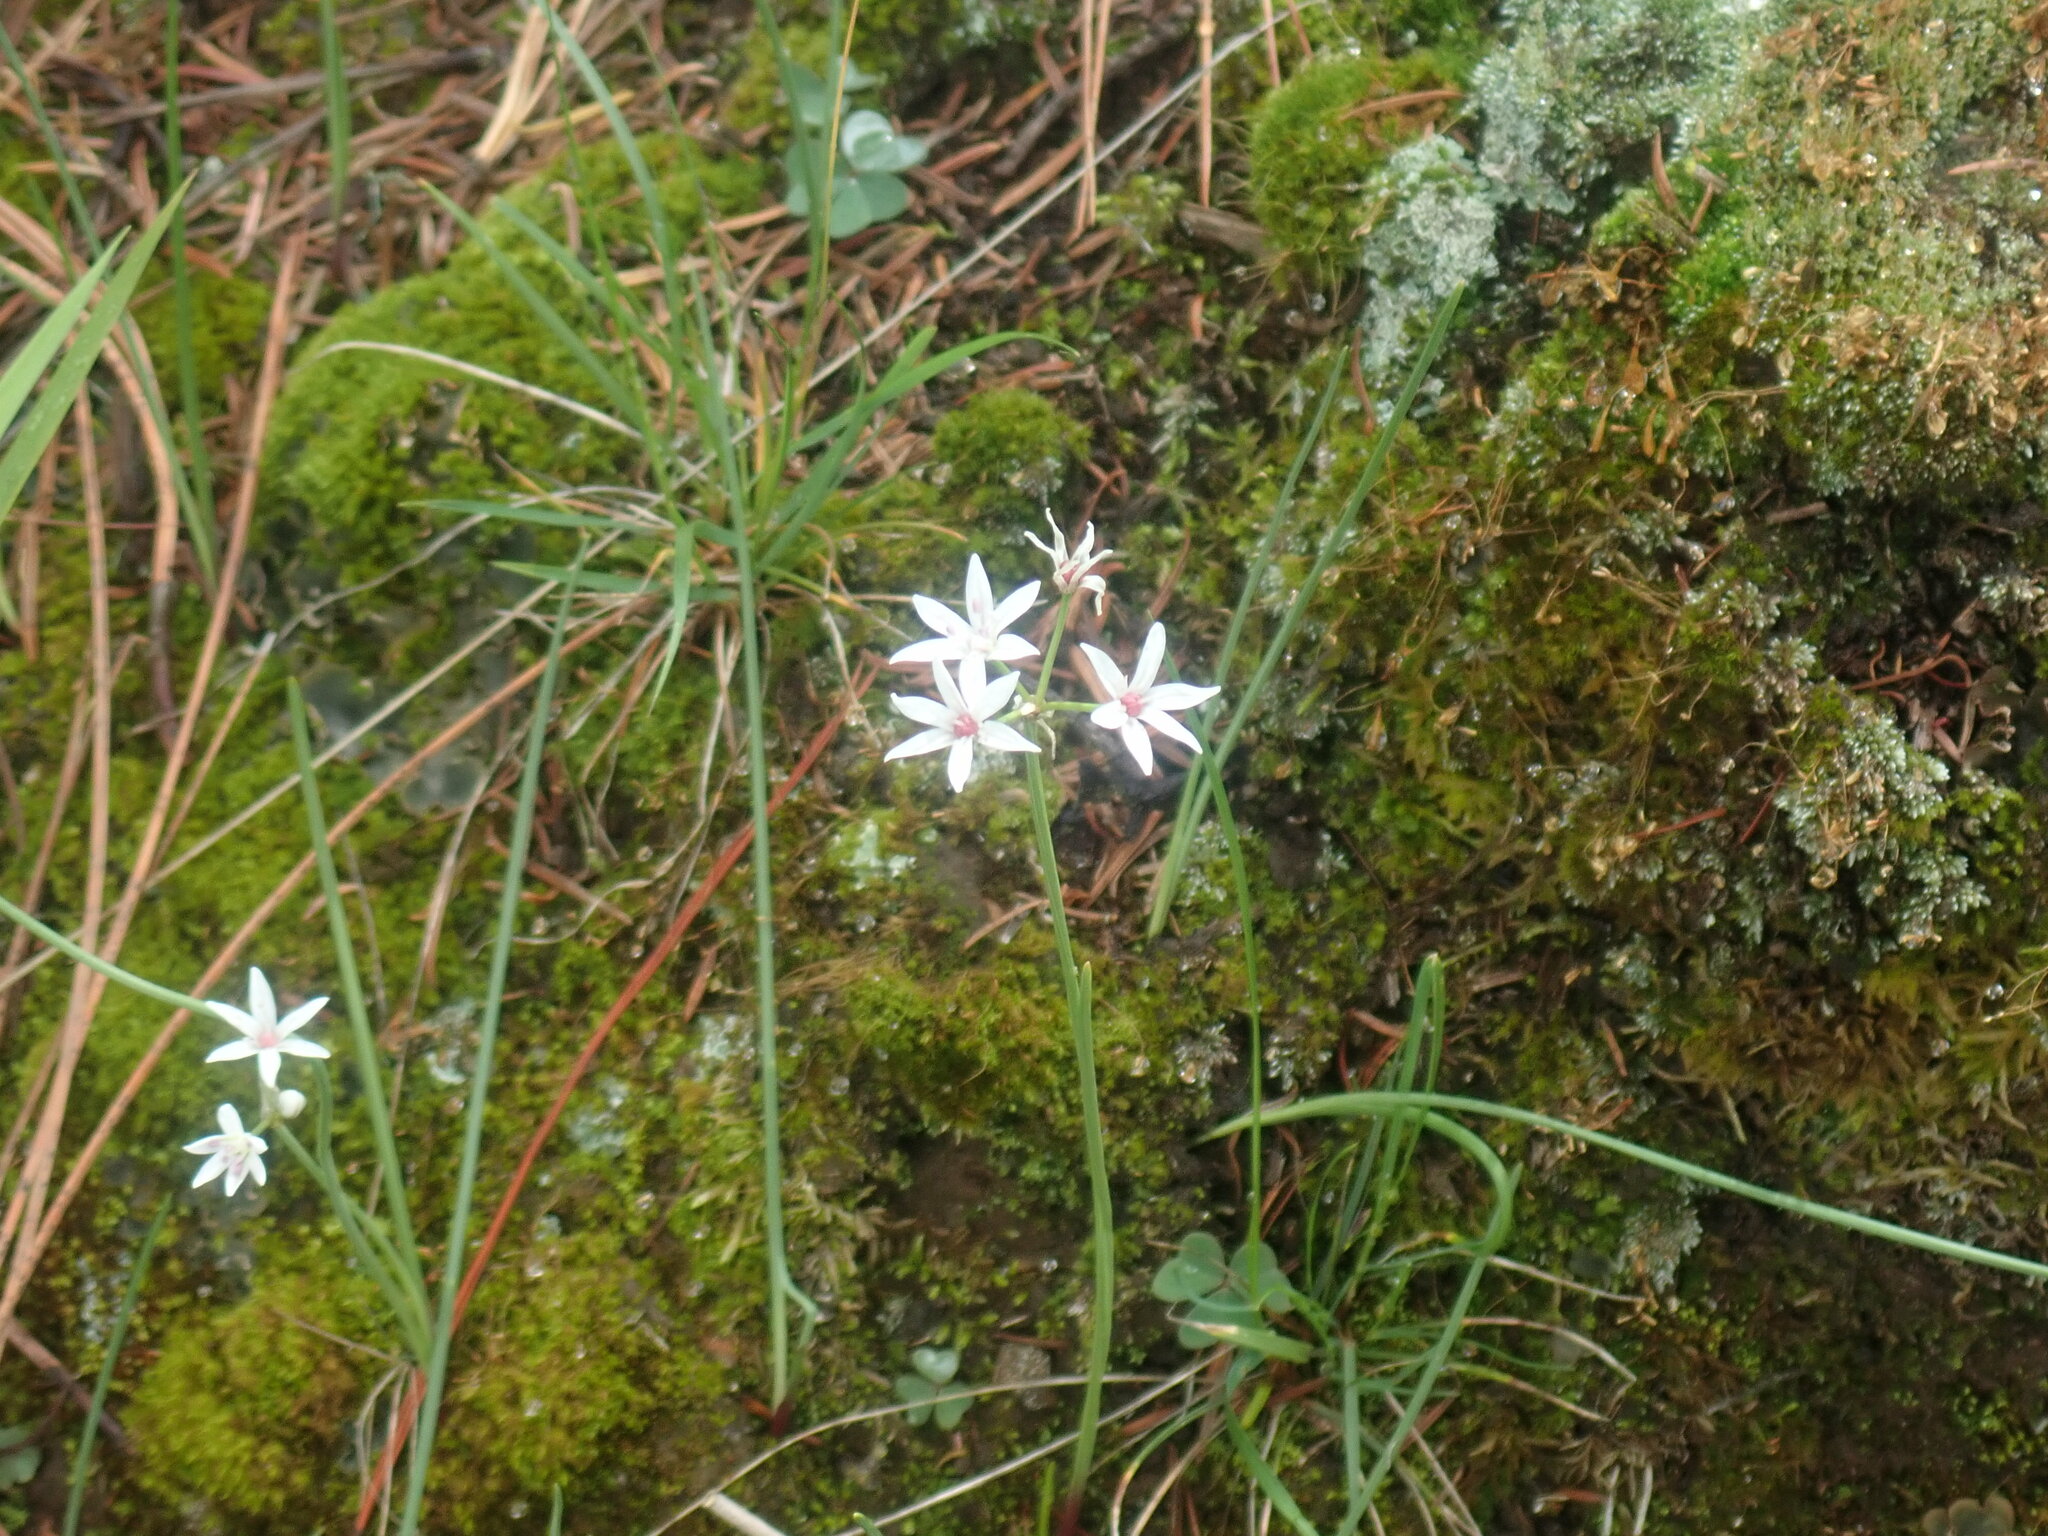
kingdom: Plantae
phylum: Tracheophyta
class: Liliopsida
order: Asparagales
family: Amaryllidaceae
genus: Allium
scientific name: Allium glandulosum
